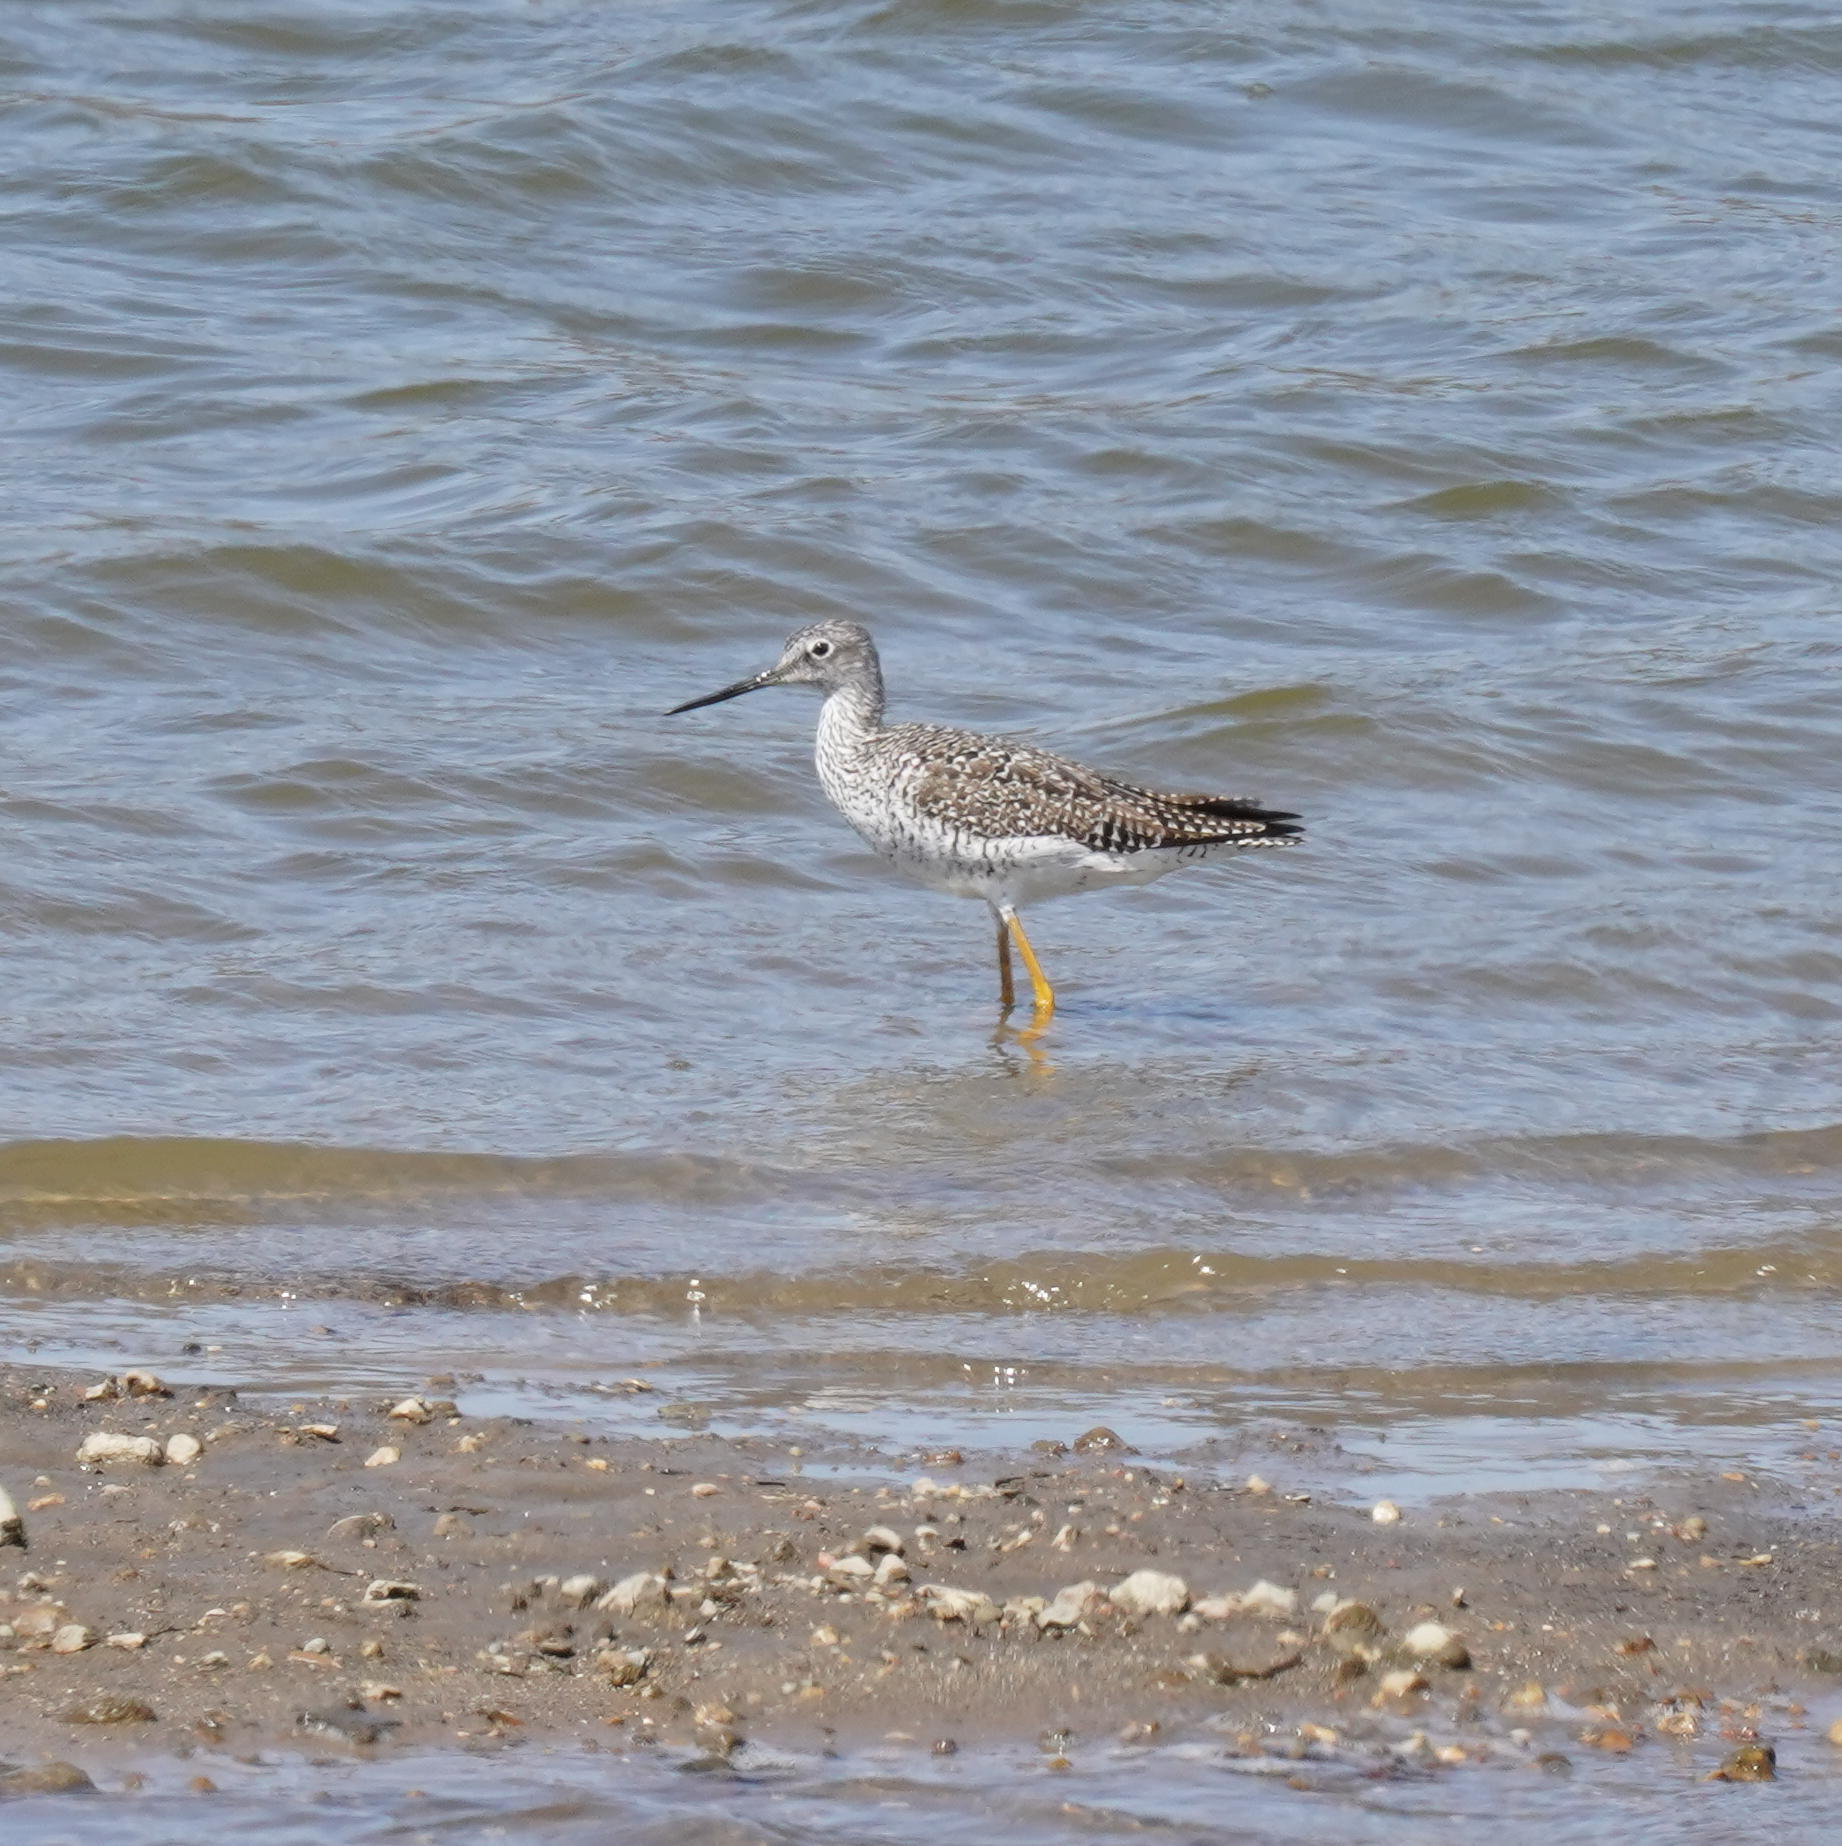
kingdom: Animalia
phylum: Chordata
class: Aves
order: Charadriiformes
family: Scolopacidae
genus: Tringa
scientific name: Tringa melanoleuca
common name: Greater yellowlegs
